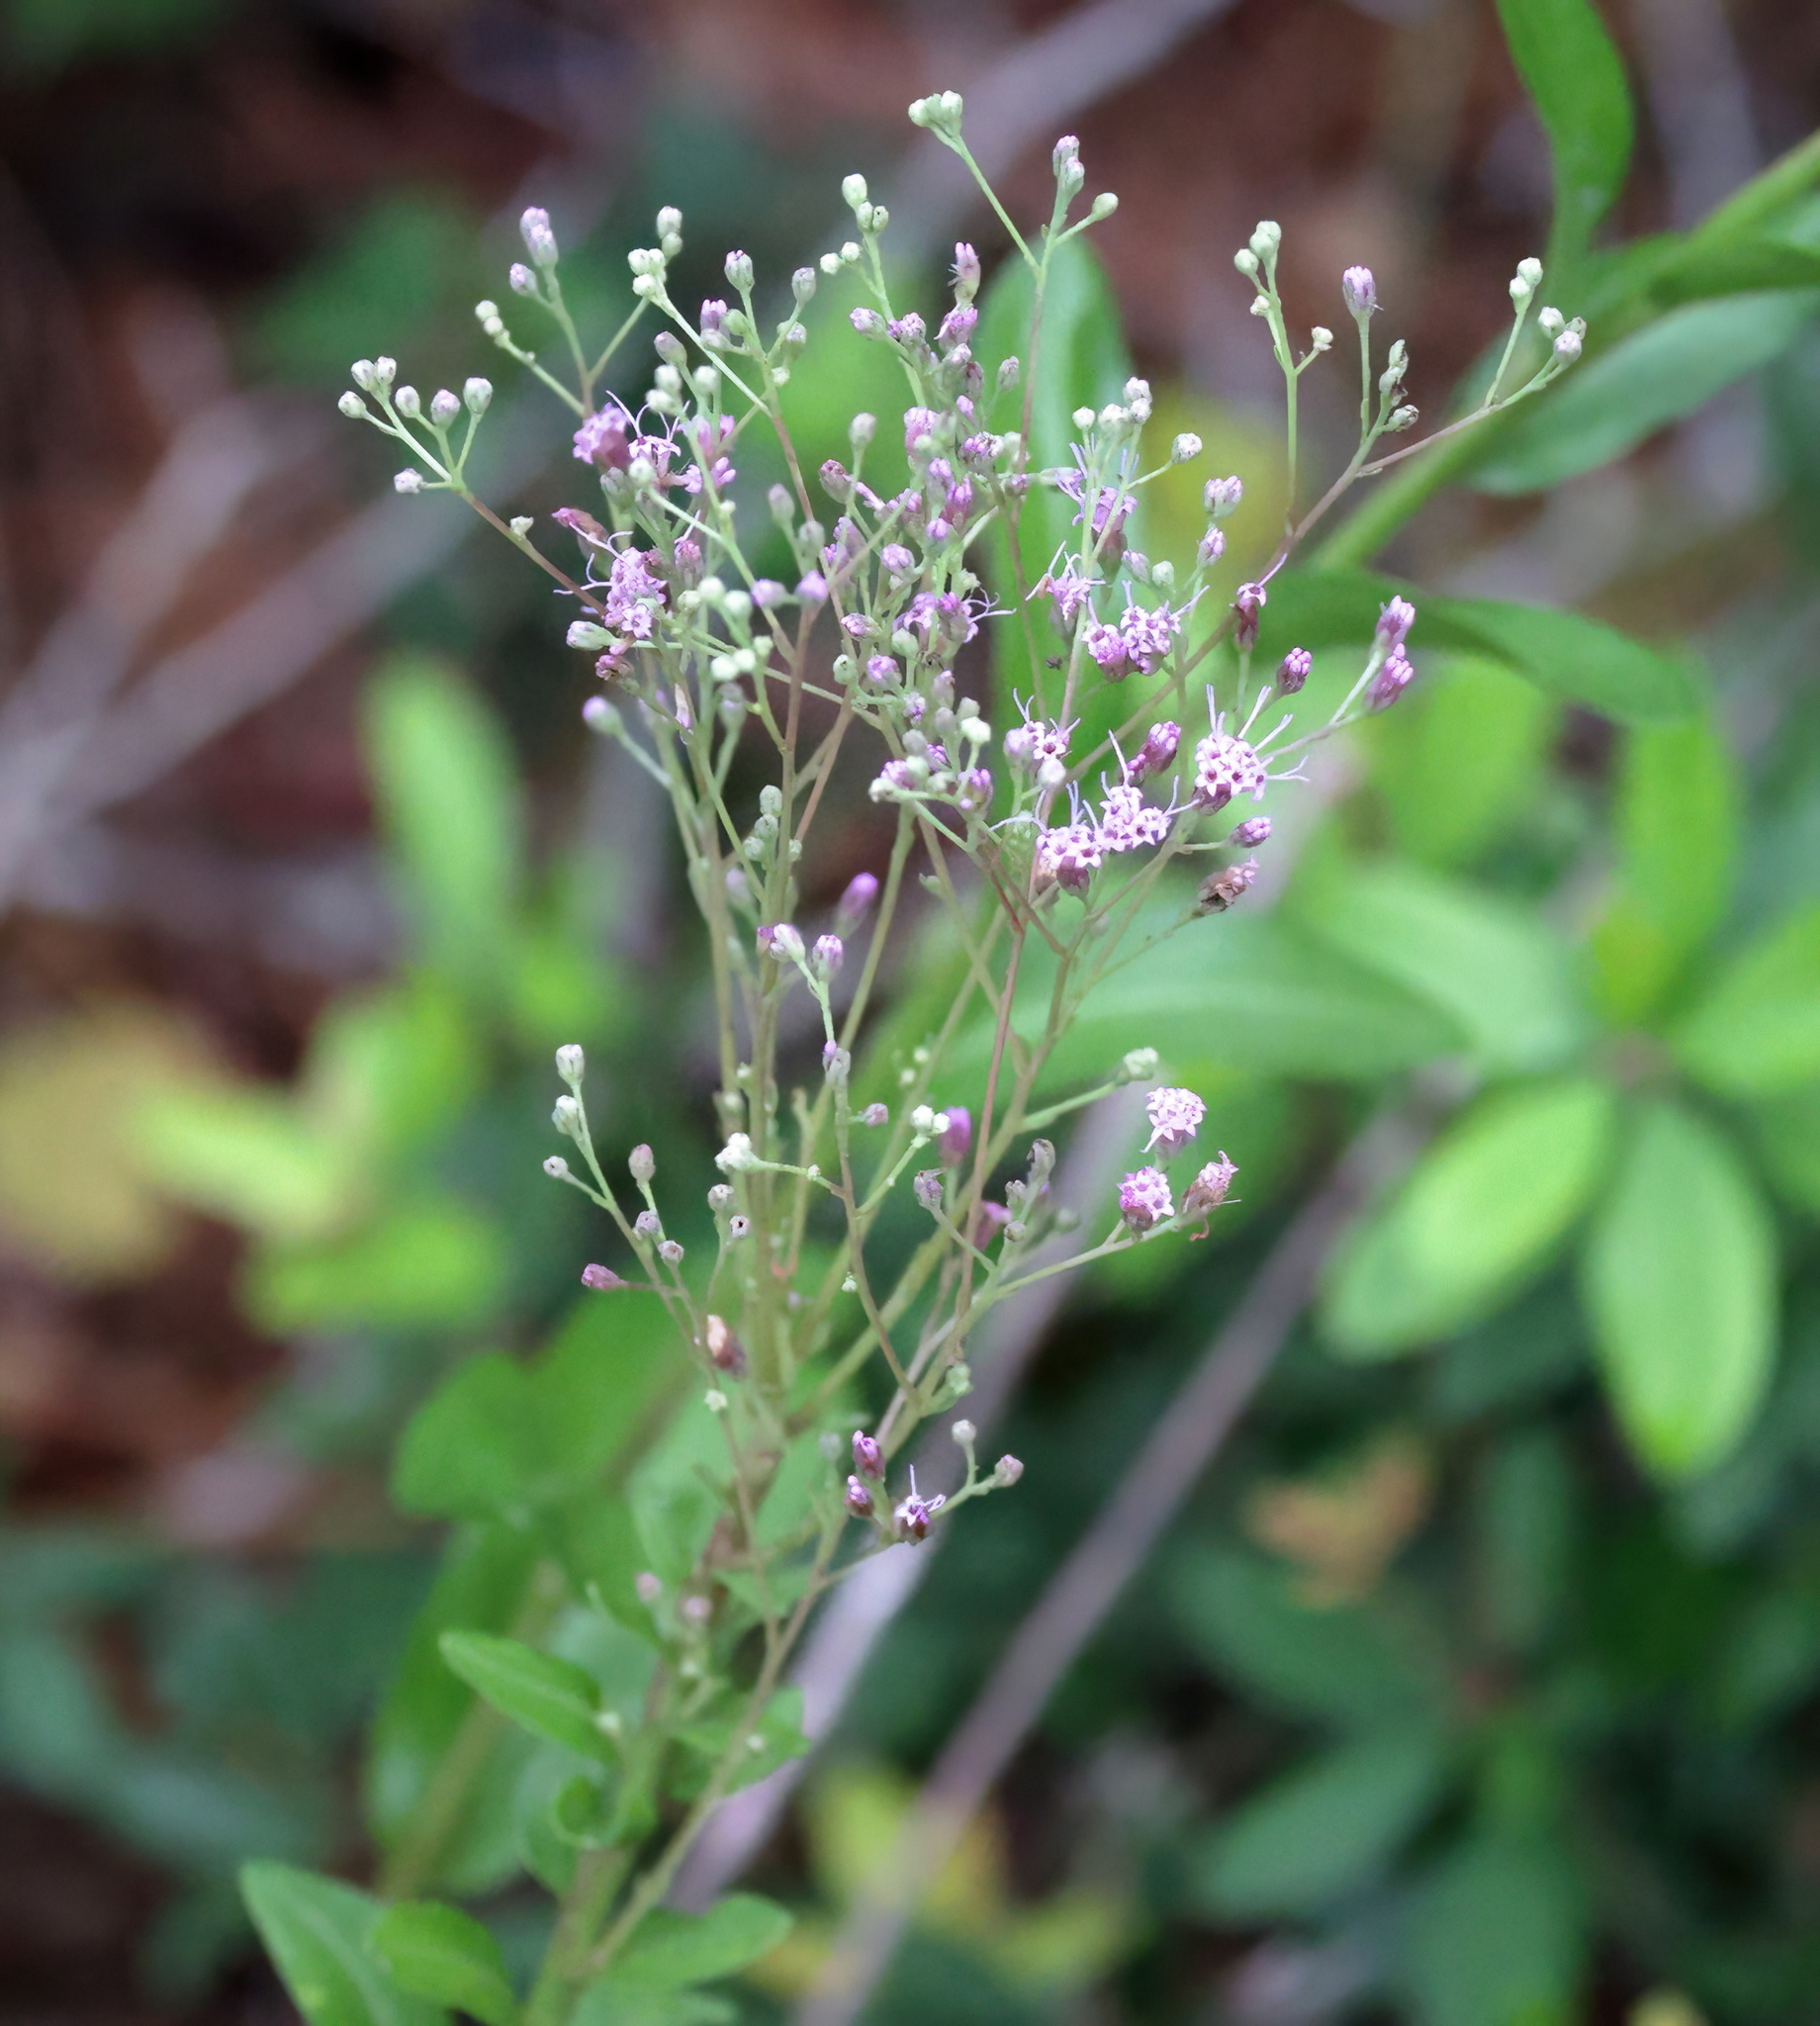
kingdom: Plantae
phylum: Tracheophyta
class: Magnoliopsida
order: Asterales
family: Asteraceae
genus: Carphephorus
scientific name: Carphephorus odoratissimus
